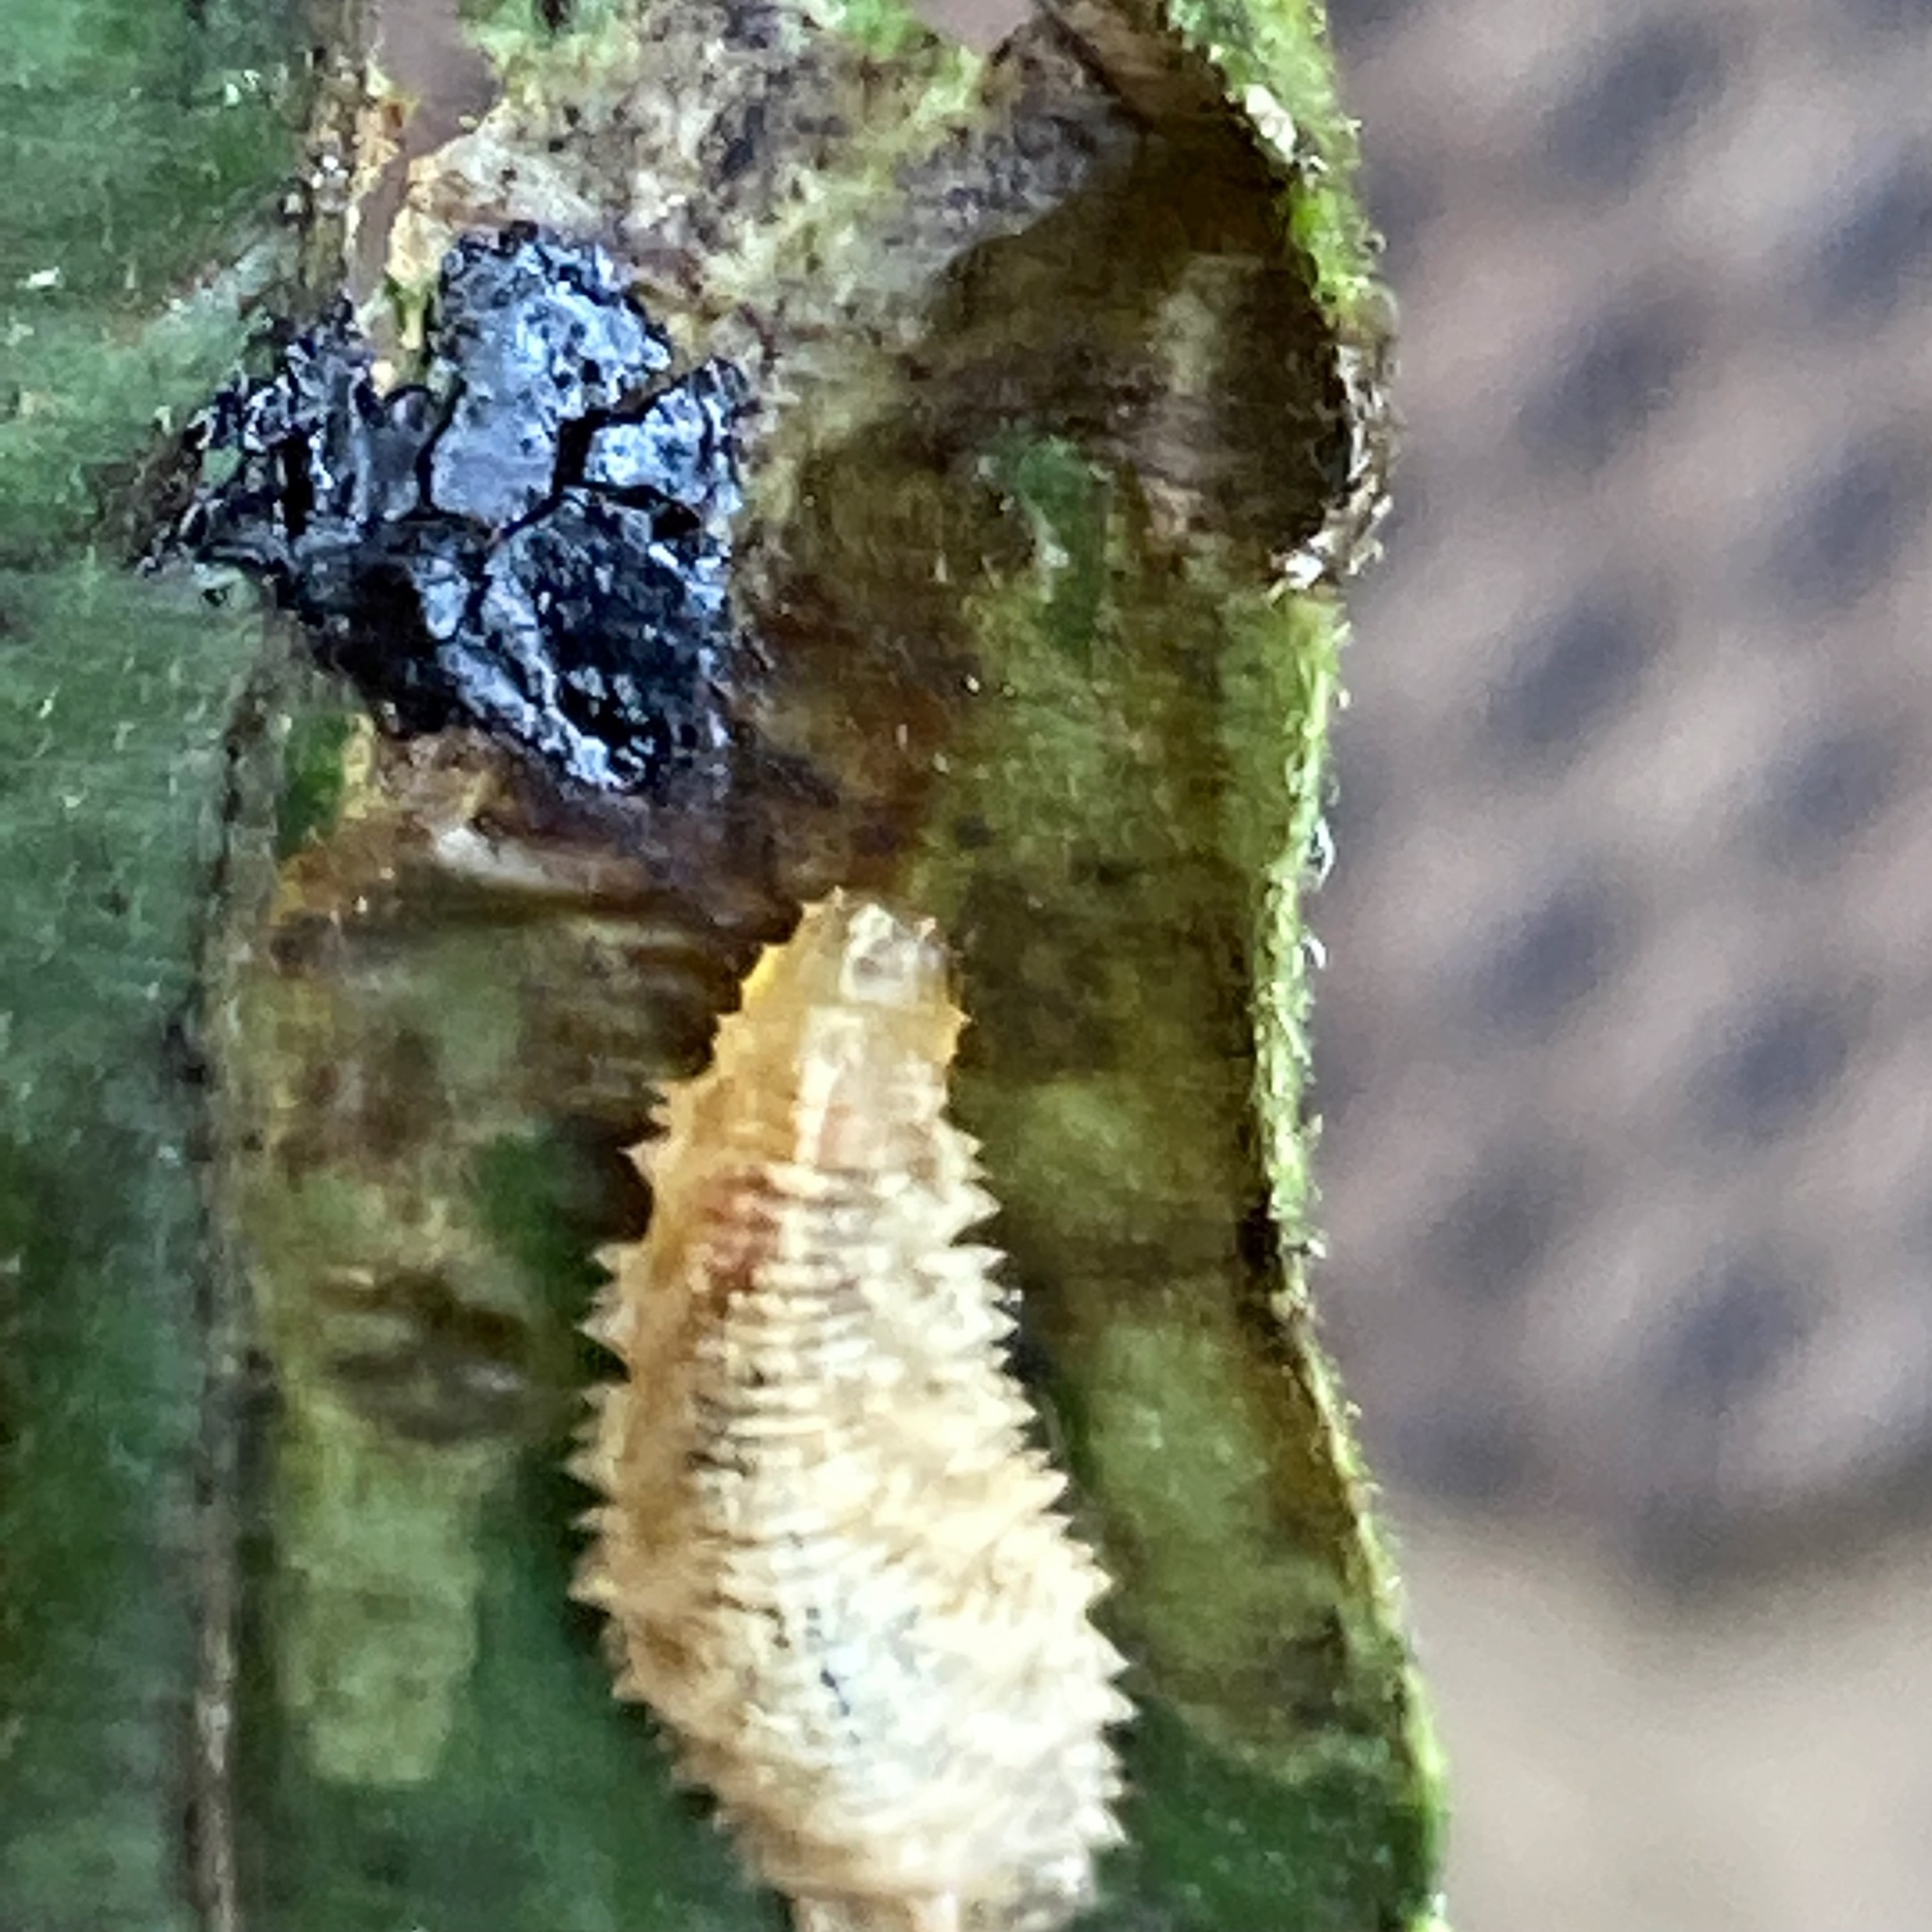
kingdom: Animalia
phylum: Arthropoda
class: Insecta
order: Diptera
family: Syrphidae
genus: Epistrophella
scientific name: Epistrophella emarginata
